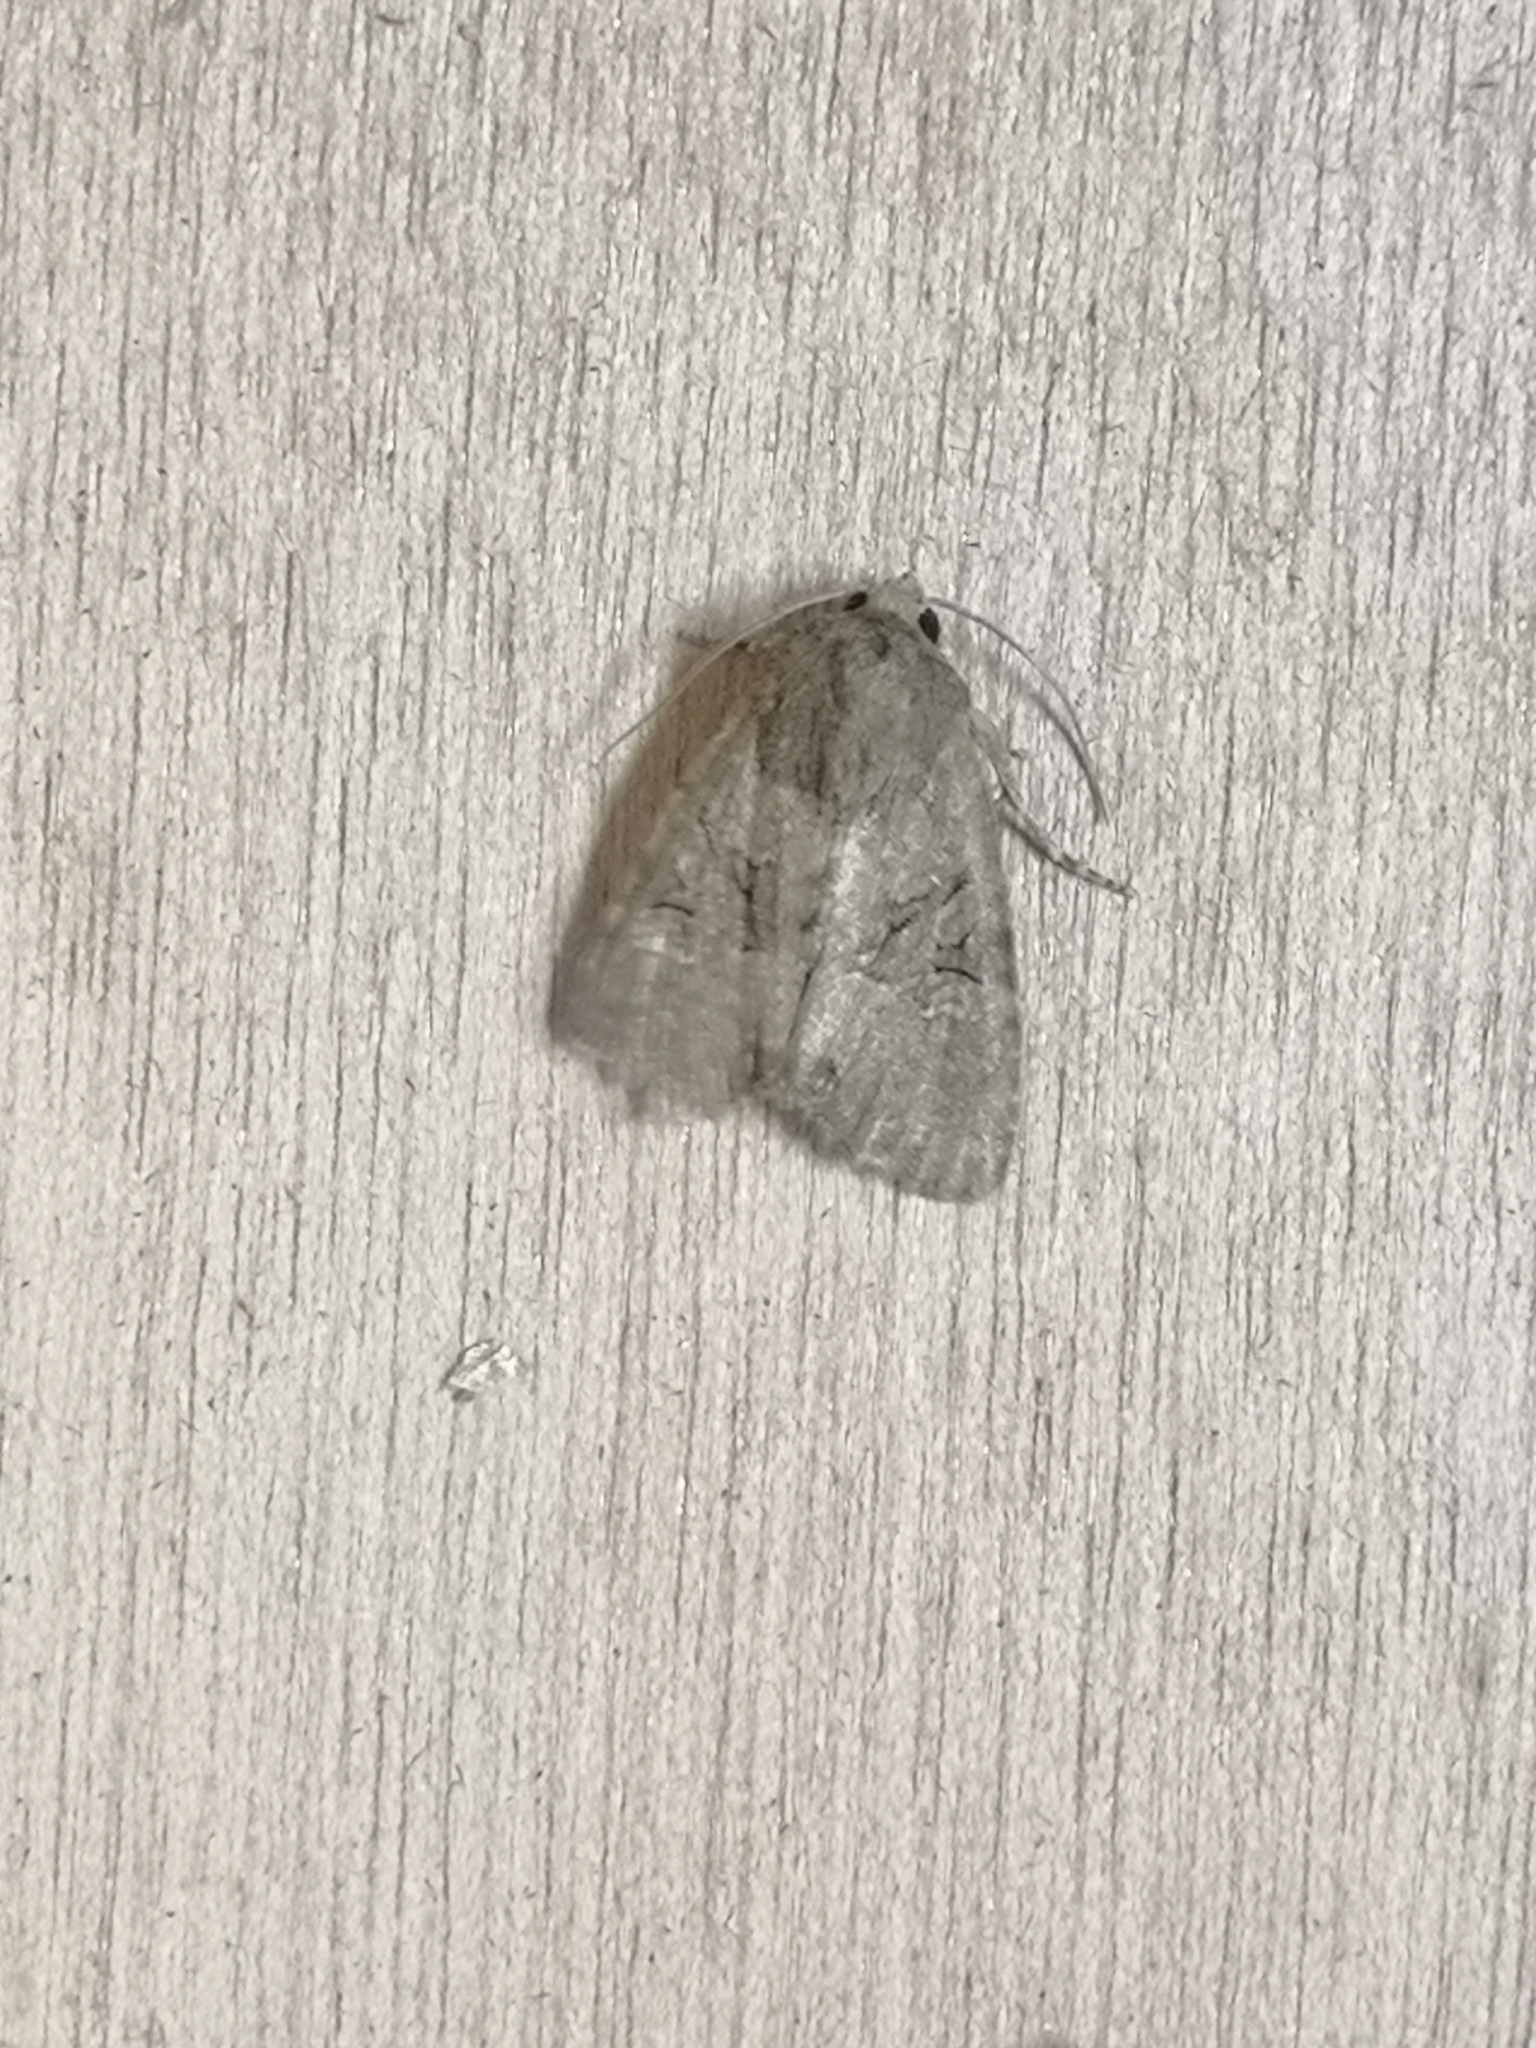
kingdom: Animalia
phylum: Arthropoda
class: Insecta
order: Lepidoptera
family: Noctuidae
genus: Mesapamea
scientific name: Mesapamea
